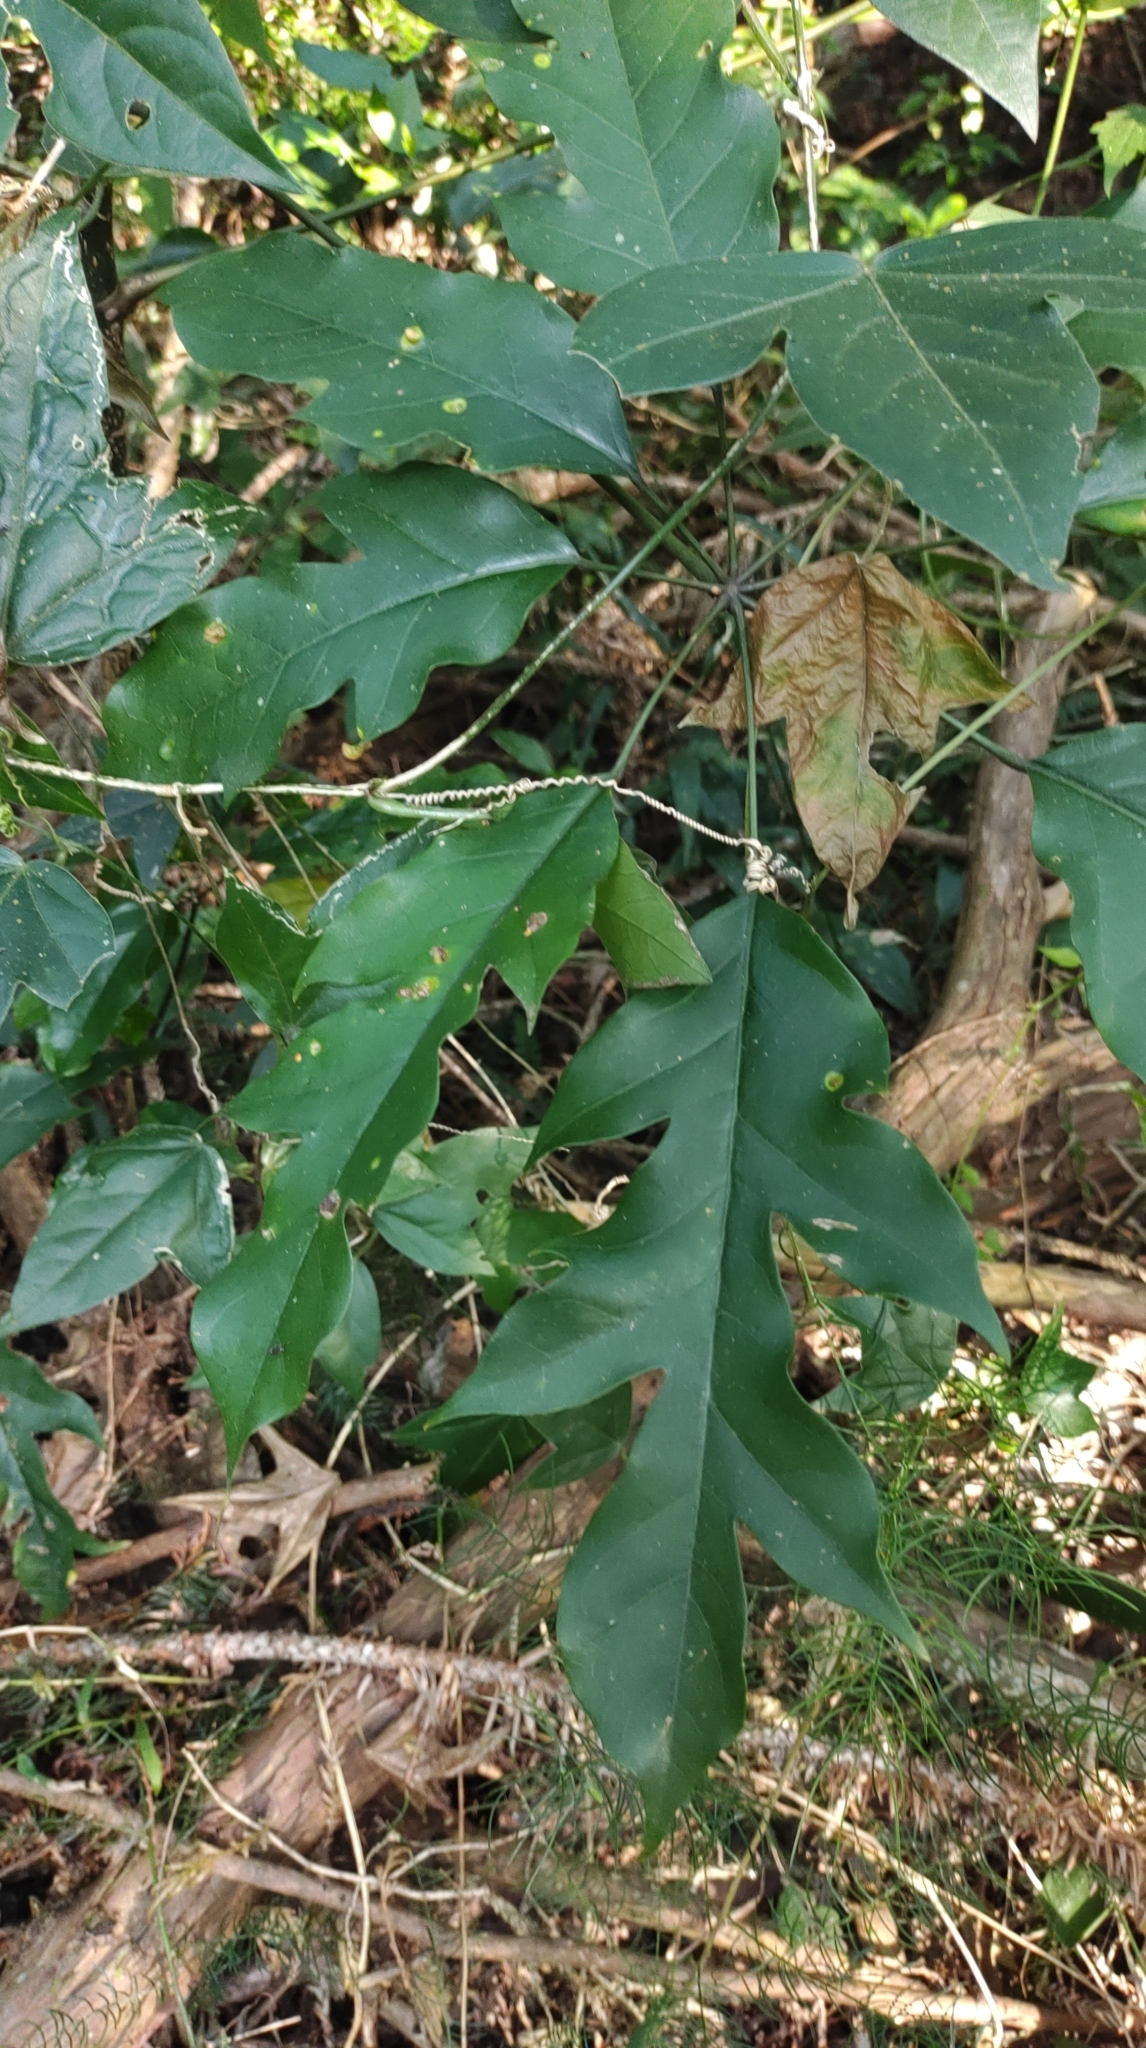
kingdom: Plantae
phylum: Tracheophyta
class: Magnoliopsida
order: Apiales
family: Araliaceae
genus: Heptapleurum
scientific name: Heptapleurum heptaphyllum
